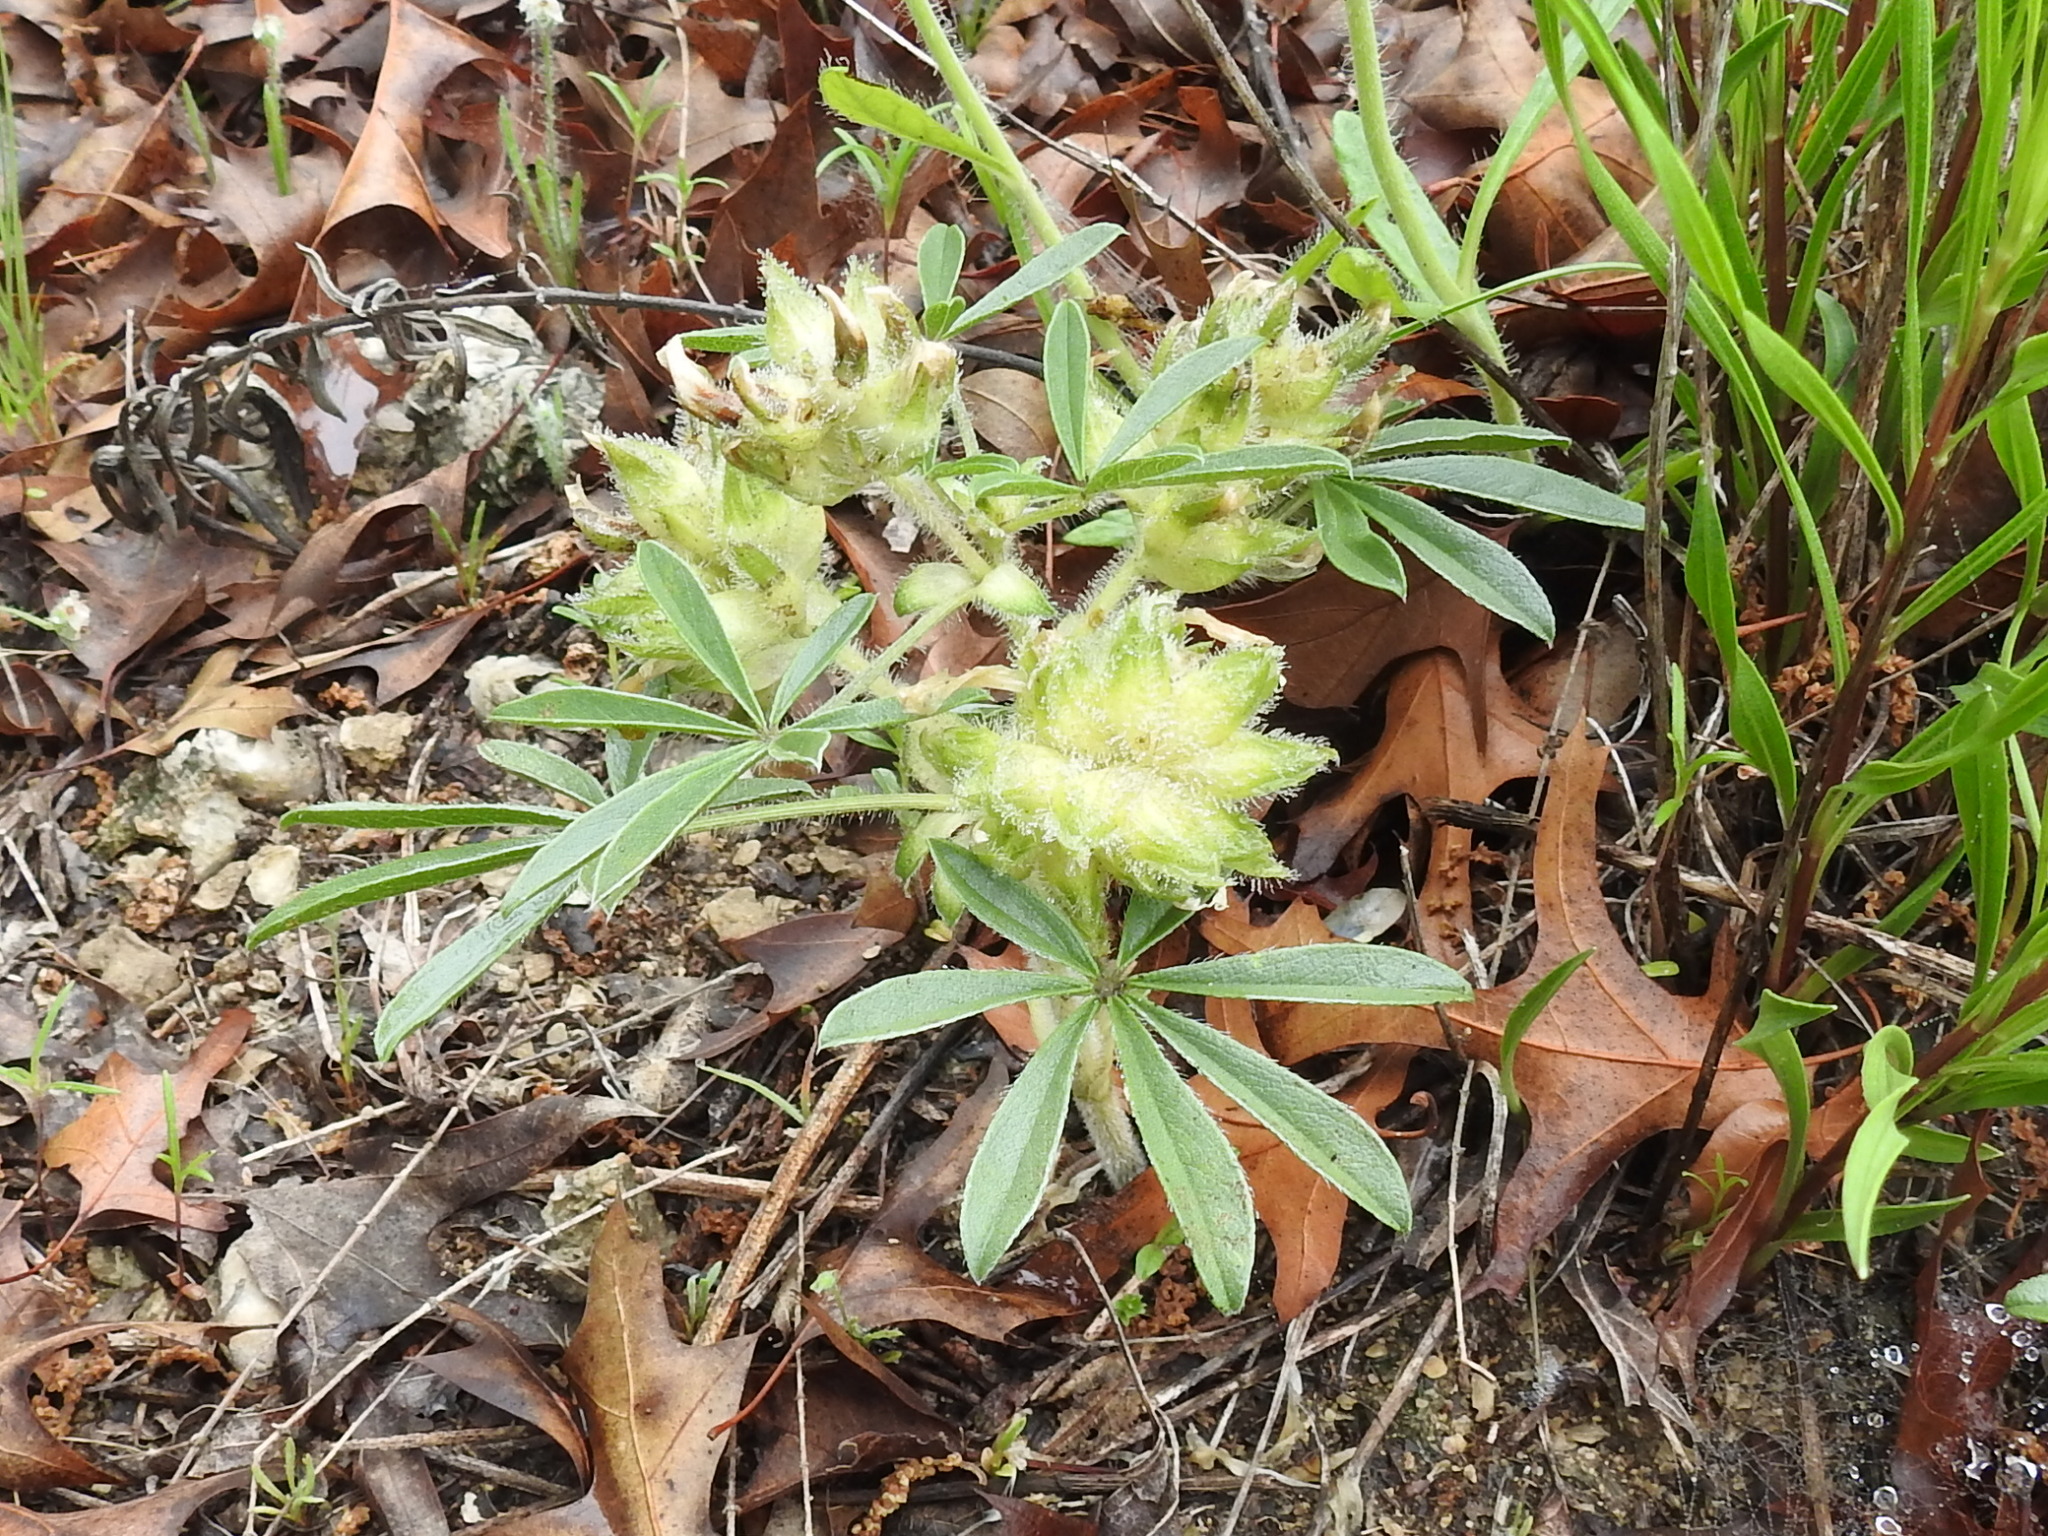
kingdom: Plantae
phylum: Tracheophyta
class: Magnoliopsida
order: Fabales
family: Fabaceae
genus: Pediomelum
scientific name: Pediomelum hypogaeum
